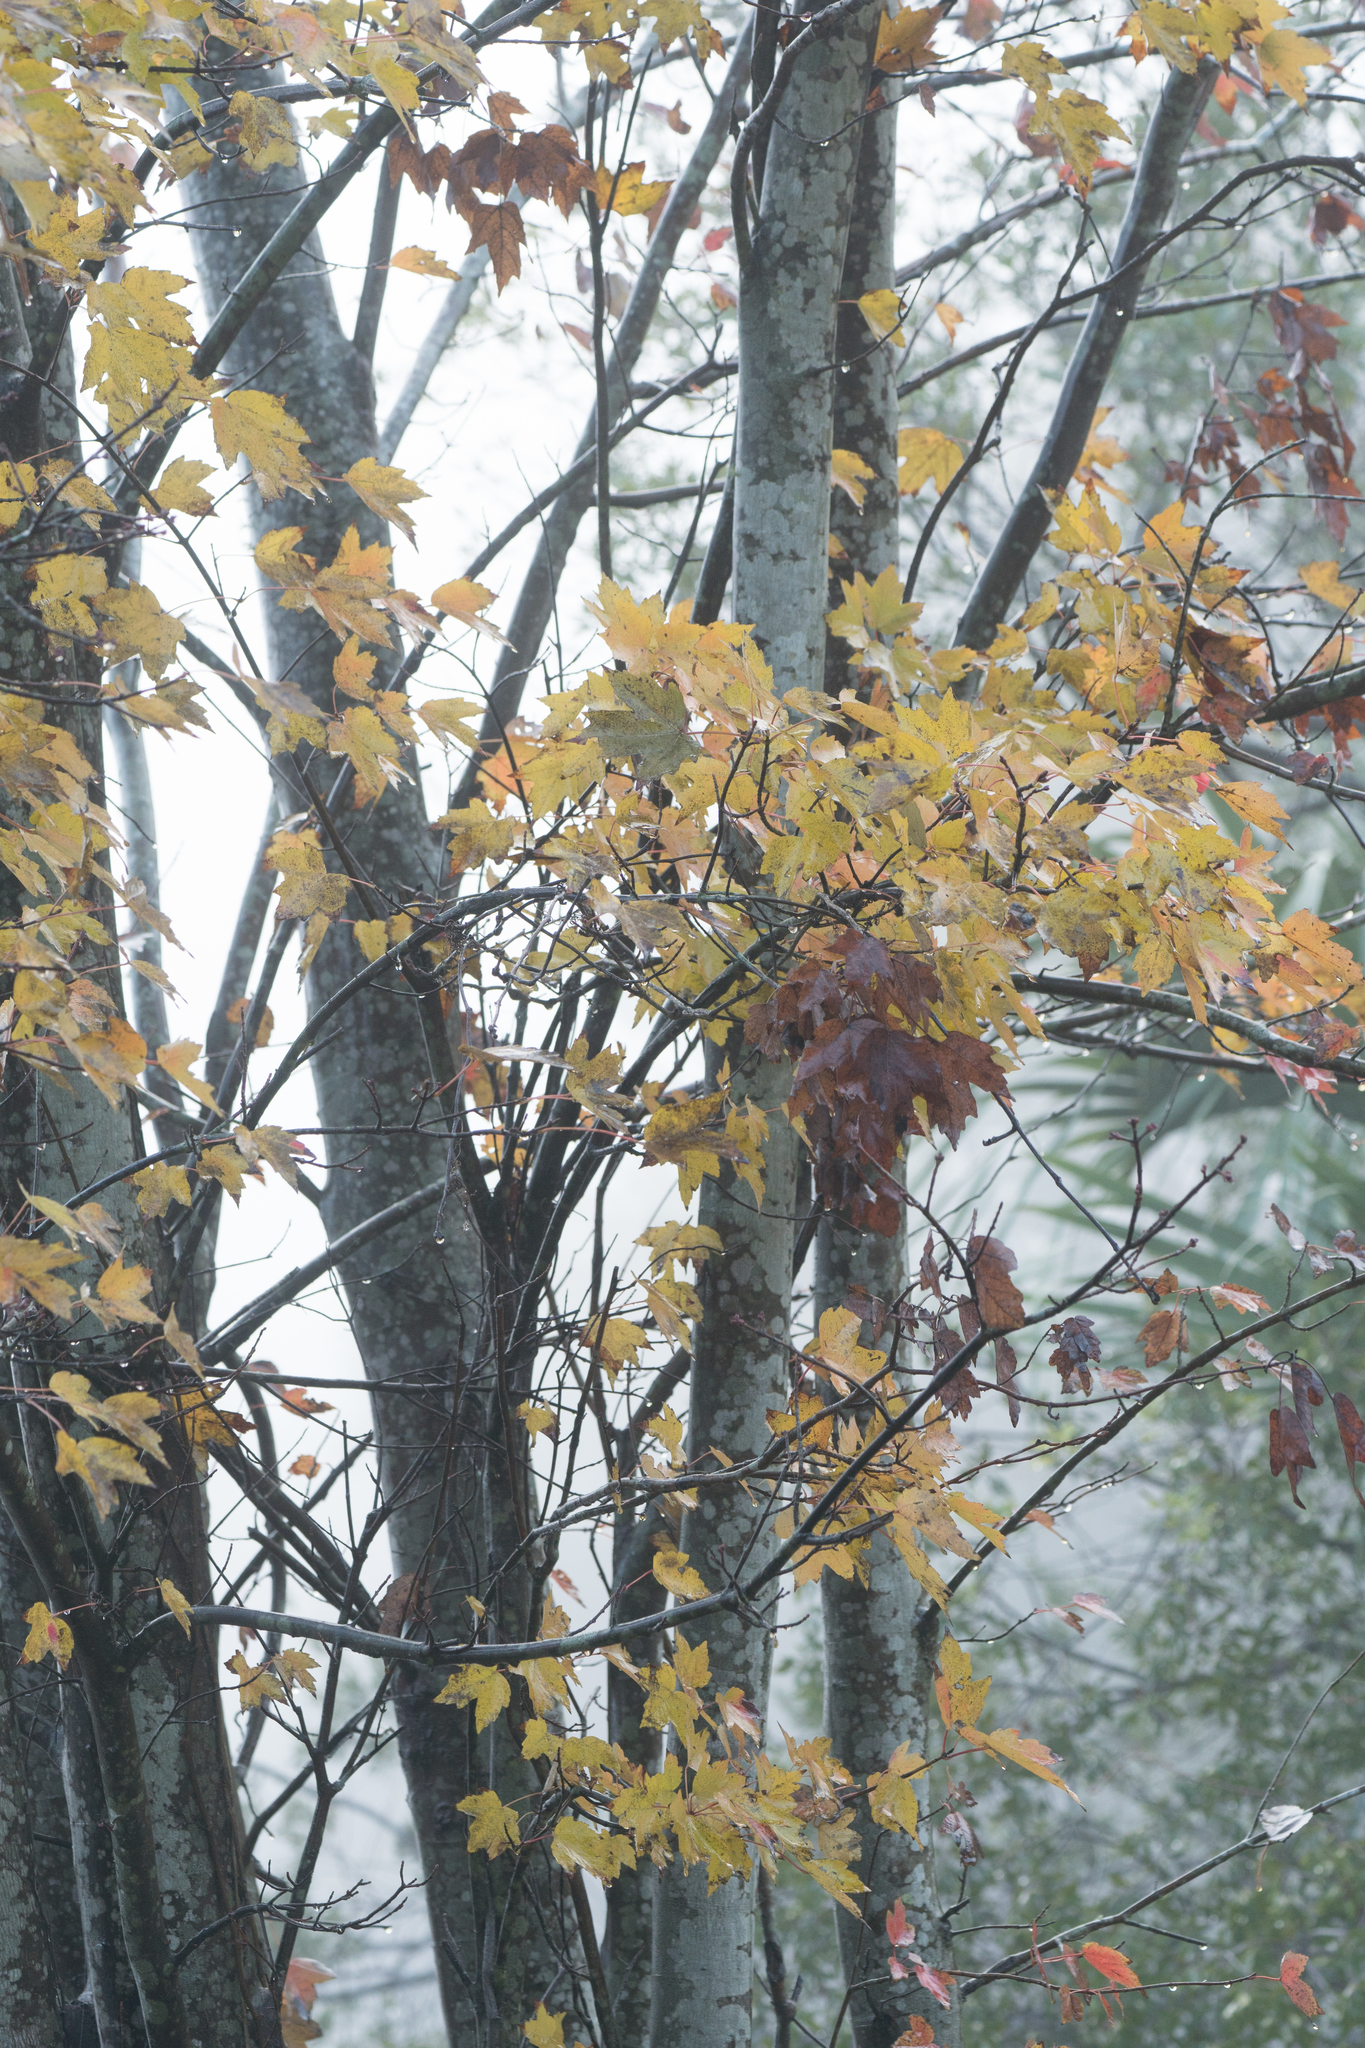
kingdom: Plantae
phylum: Tracheophyta
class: Magnoliopsida
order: Sapindales
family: Sapindaceae
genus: Acer
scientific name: Acer rubrum
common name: Red maple
